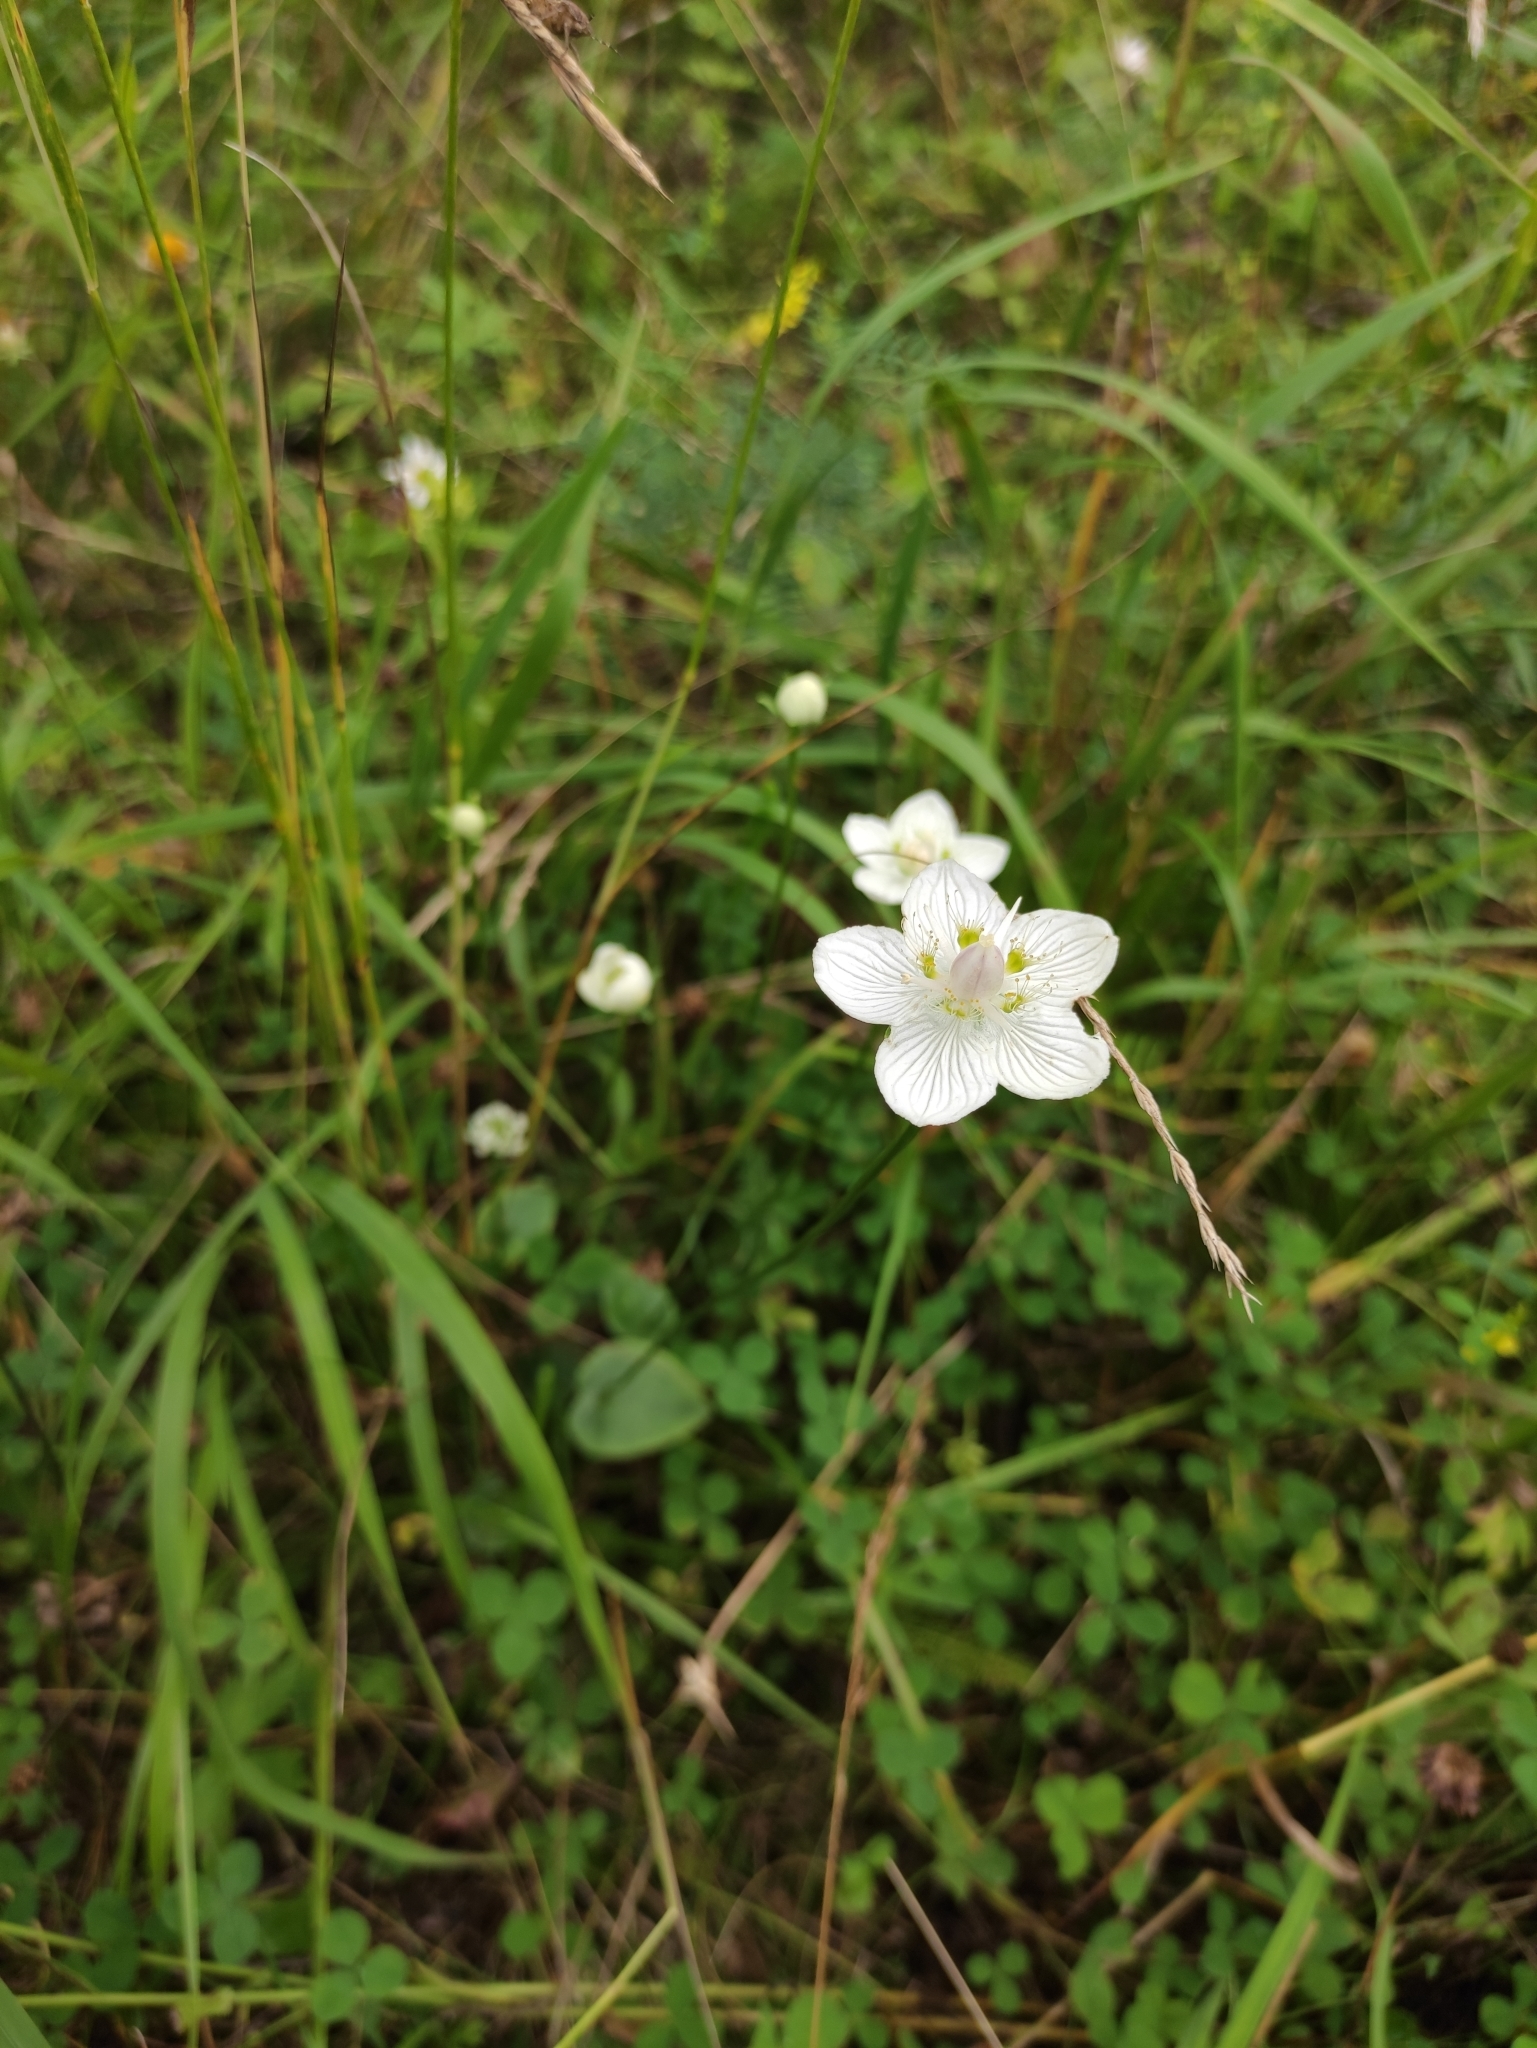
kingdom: Plantae
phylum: Tracheophyta
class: Magnoliopsida
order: Celastrales
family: Parnassiaceae
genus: Parnassia
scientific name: Parnassia palustris
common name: Grass-of-parnassus
